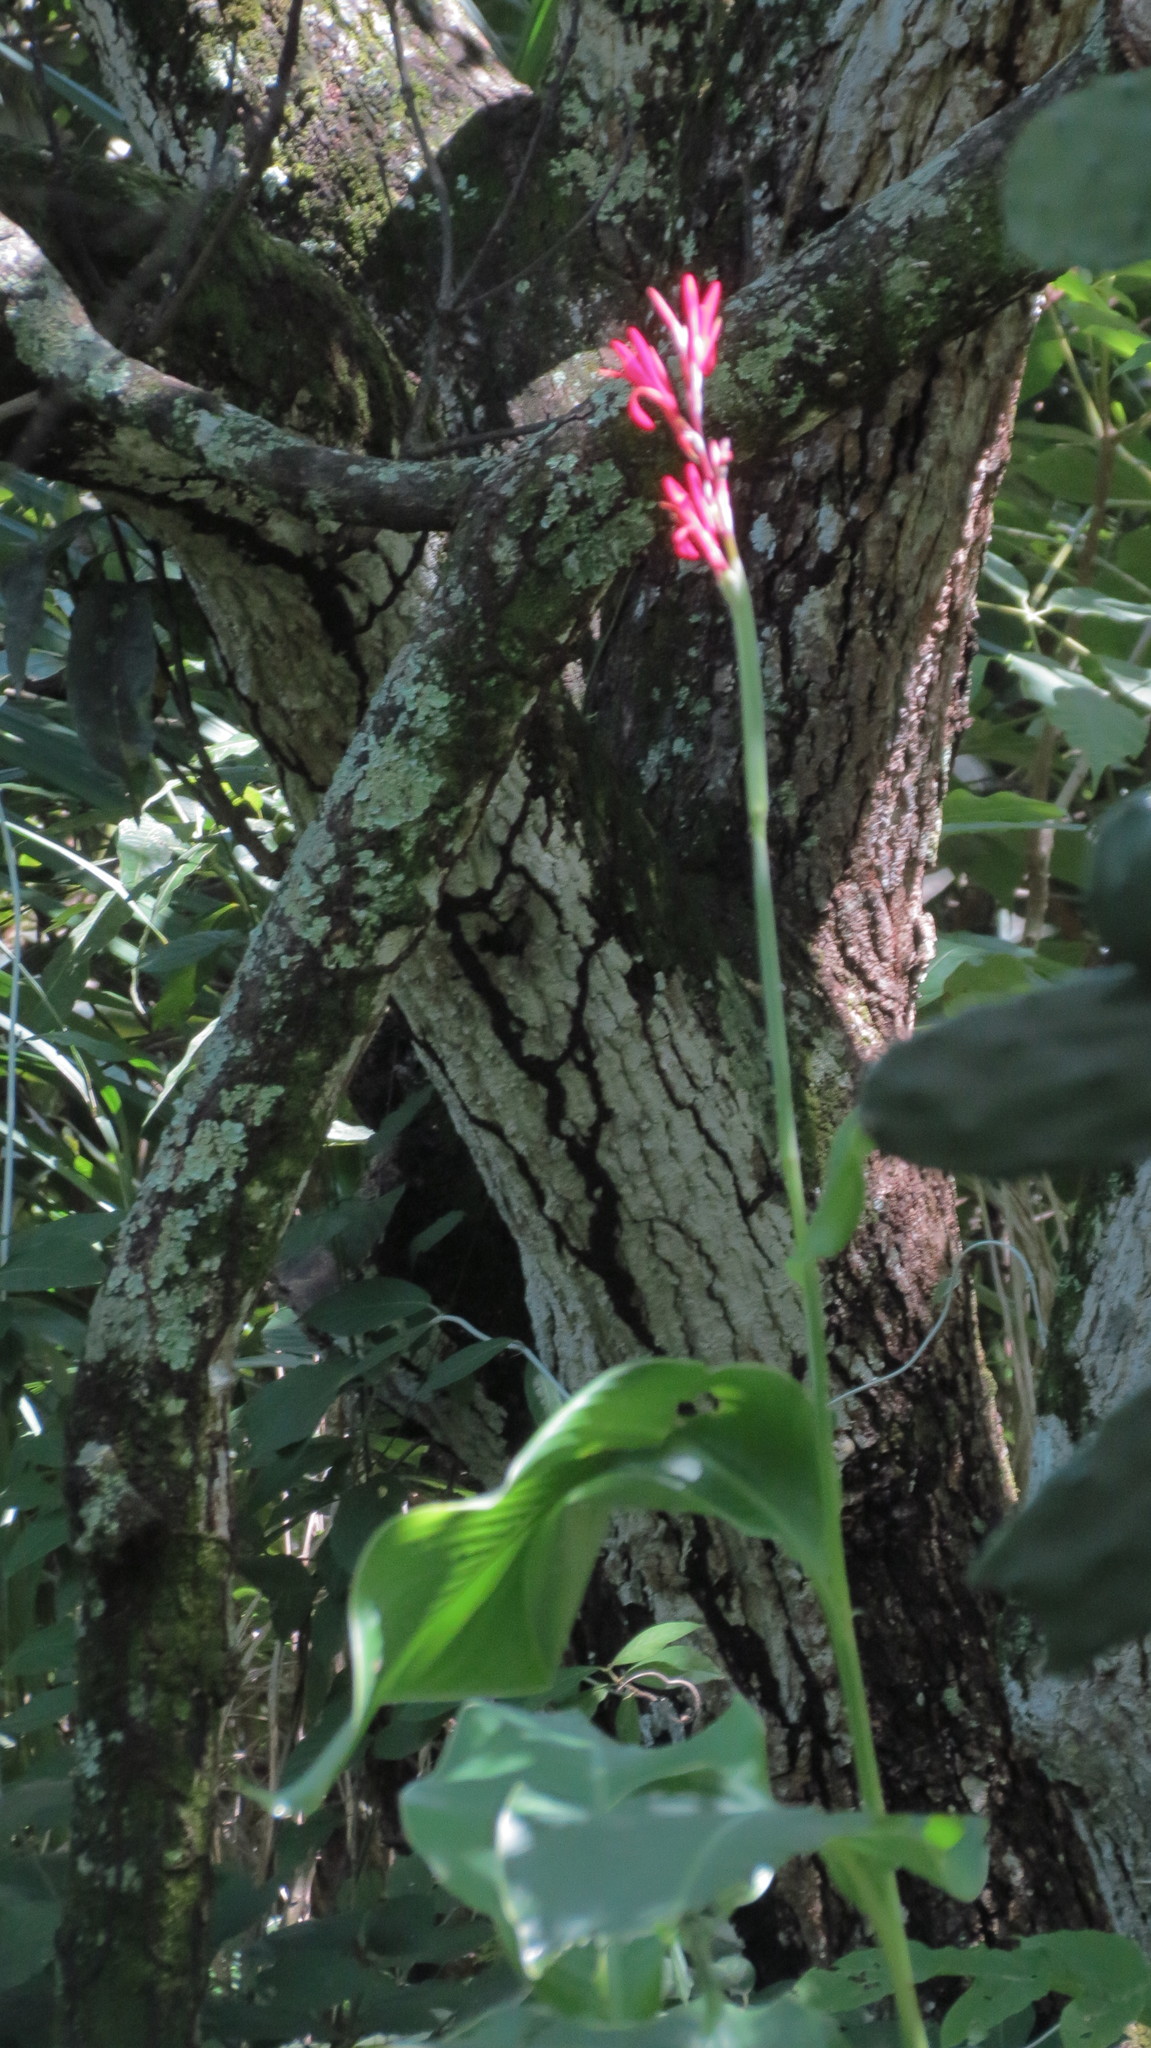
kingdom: Plantae
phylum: Tracheophyta
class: Liliopsida
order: Zingiberales
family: Cannaceae
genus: Canna
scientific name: Canna indica
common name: Indian shot
